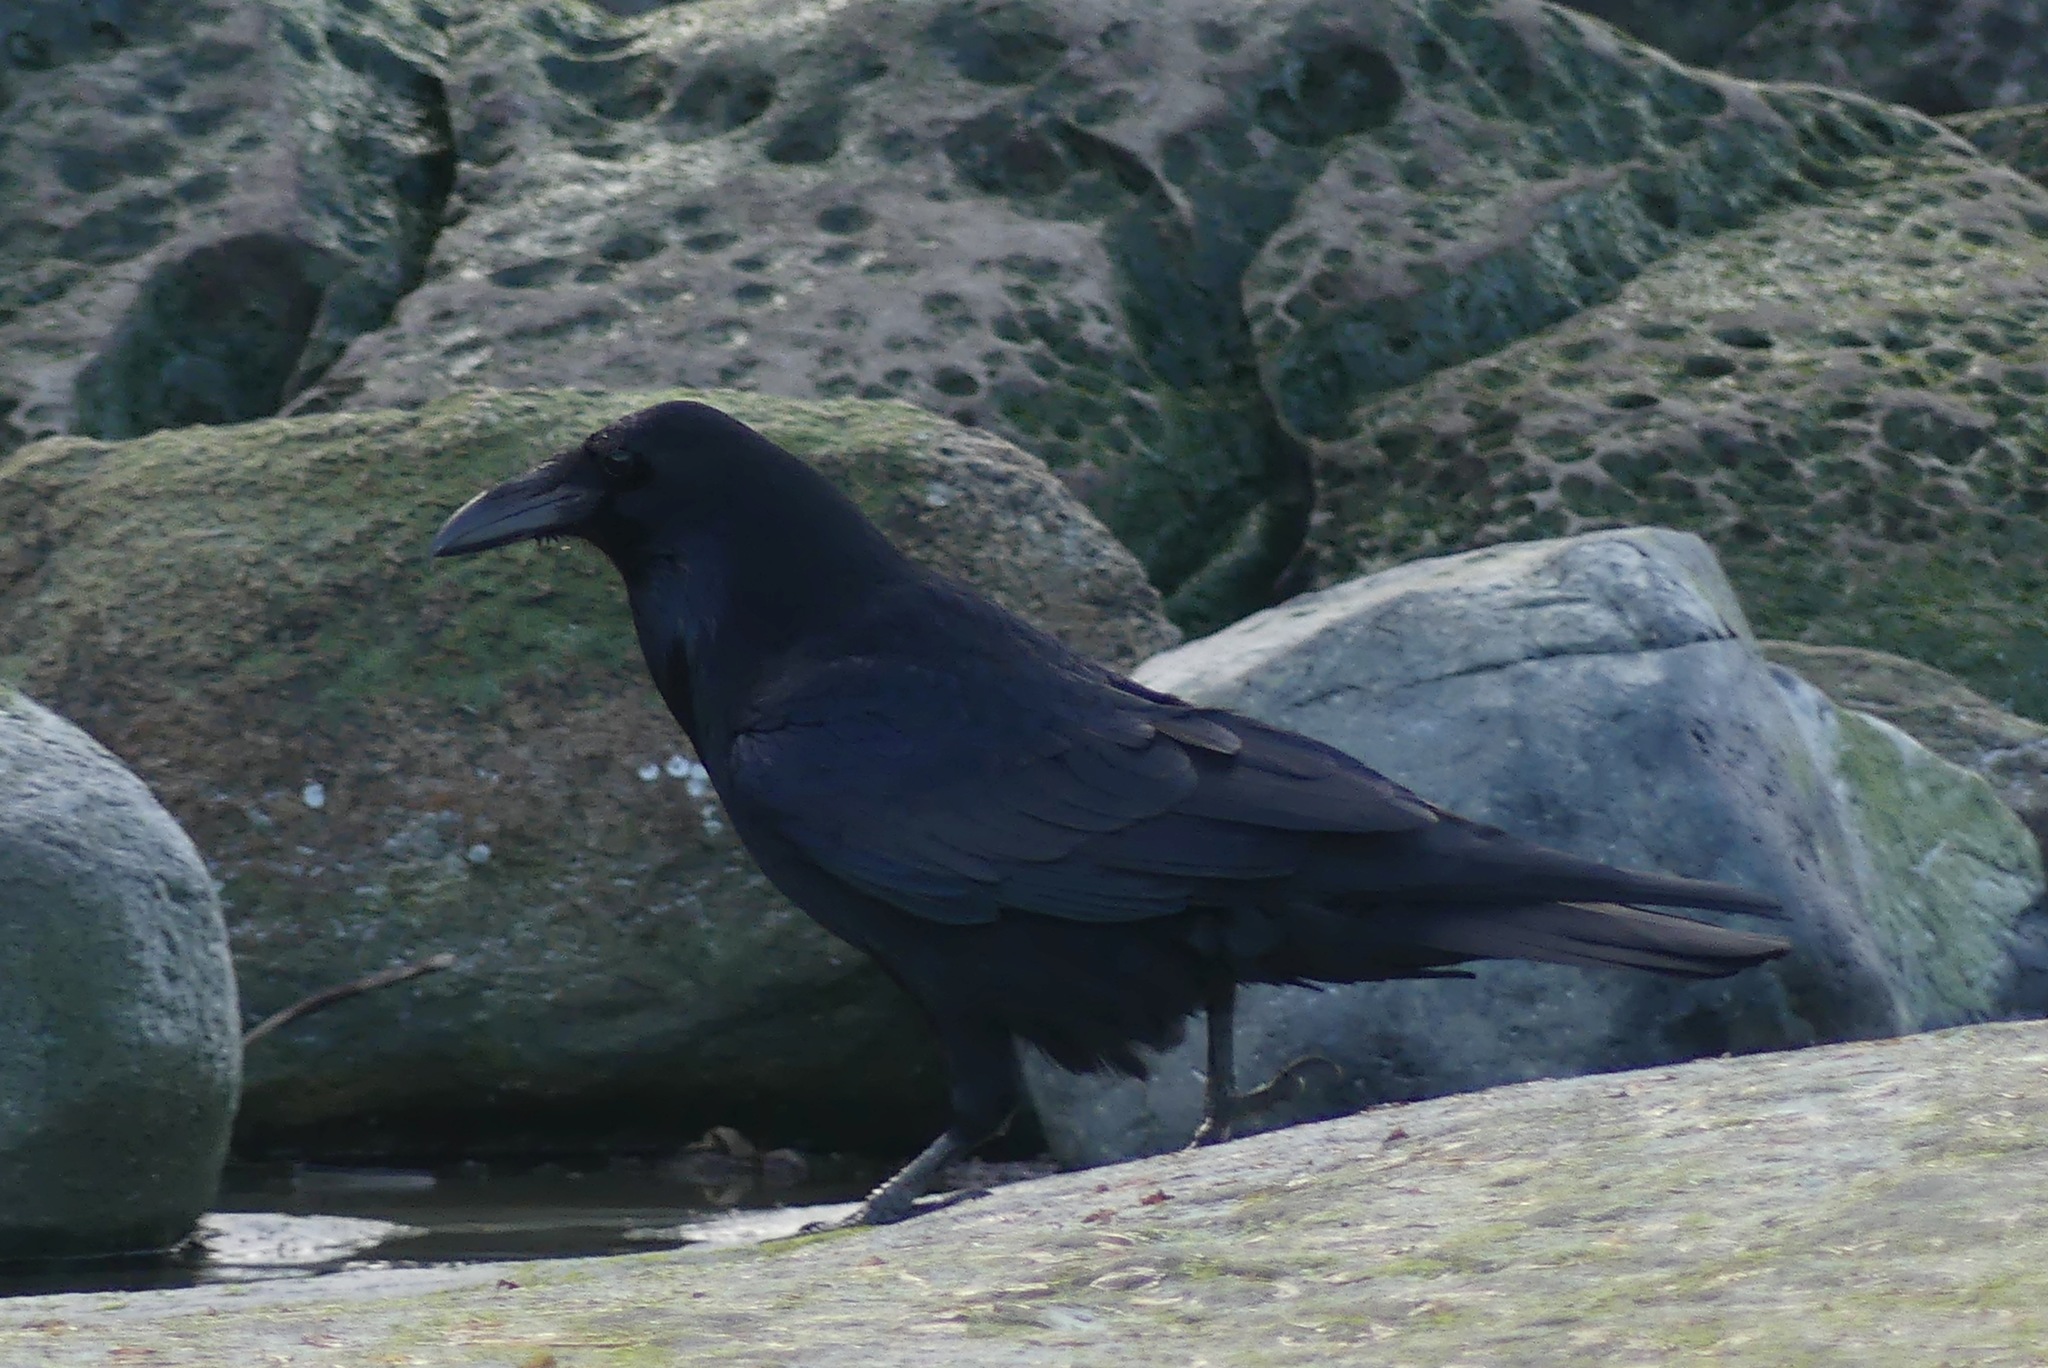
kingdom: Animalia
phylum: Chordata
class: Aves
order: Passeriformes
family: Corvidae
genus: Corvus
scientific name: Corvus corax
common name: Common raven
